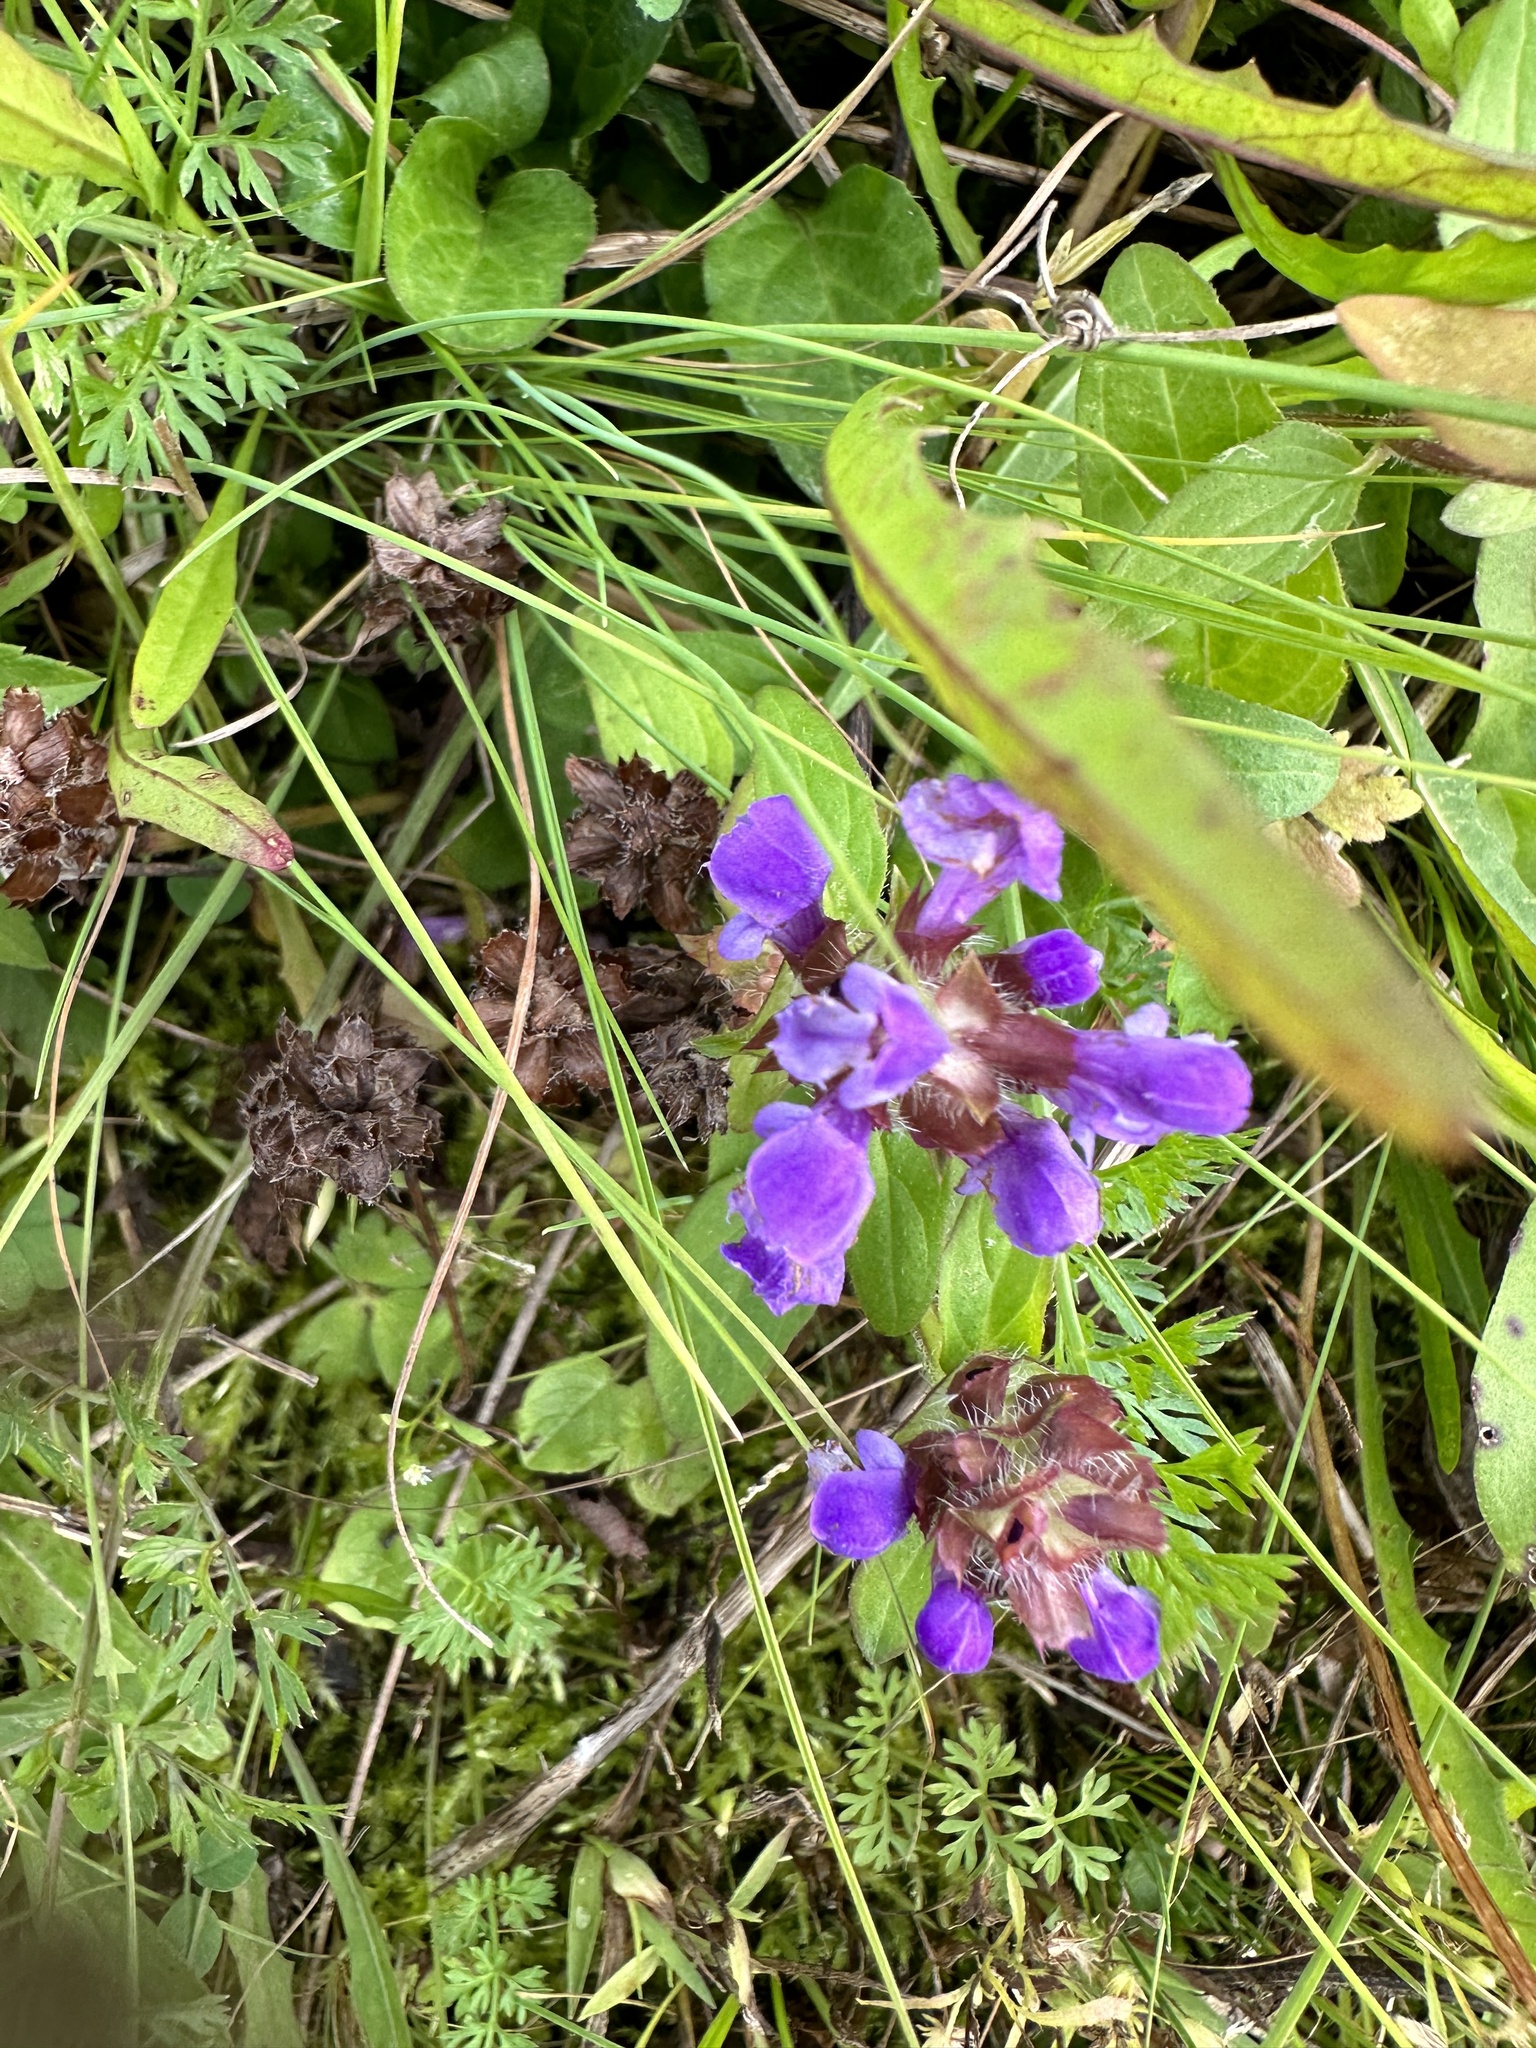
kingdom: Plantae
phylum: Tracheophyta
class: Magnoliopsida
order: Lamiales
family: Lamiaceae
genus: Prunella
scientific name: Prunella vulgaris
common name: Heal-all
